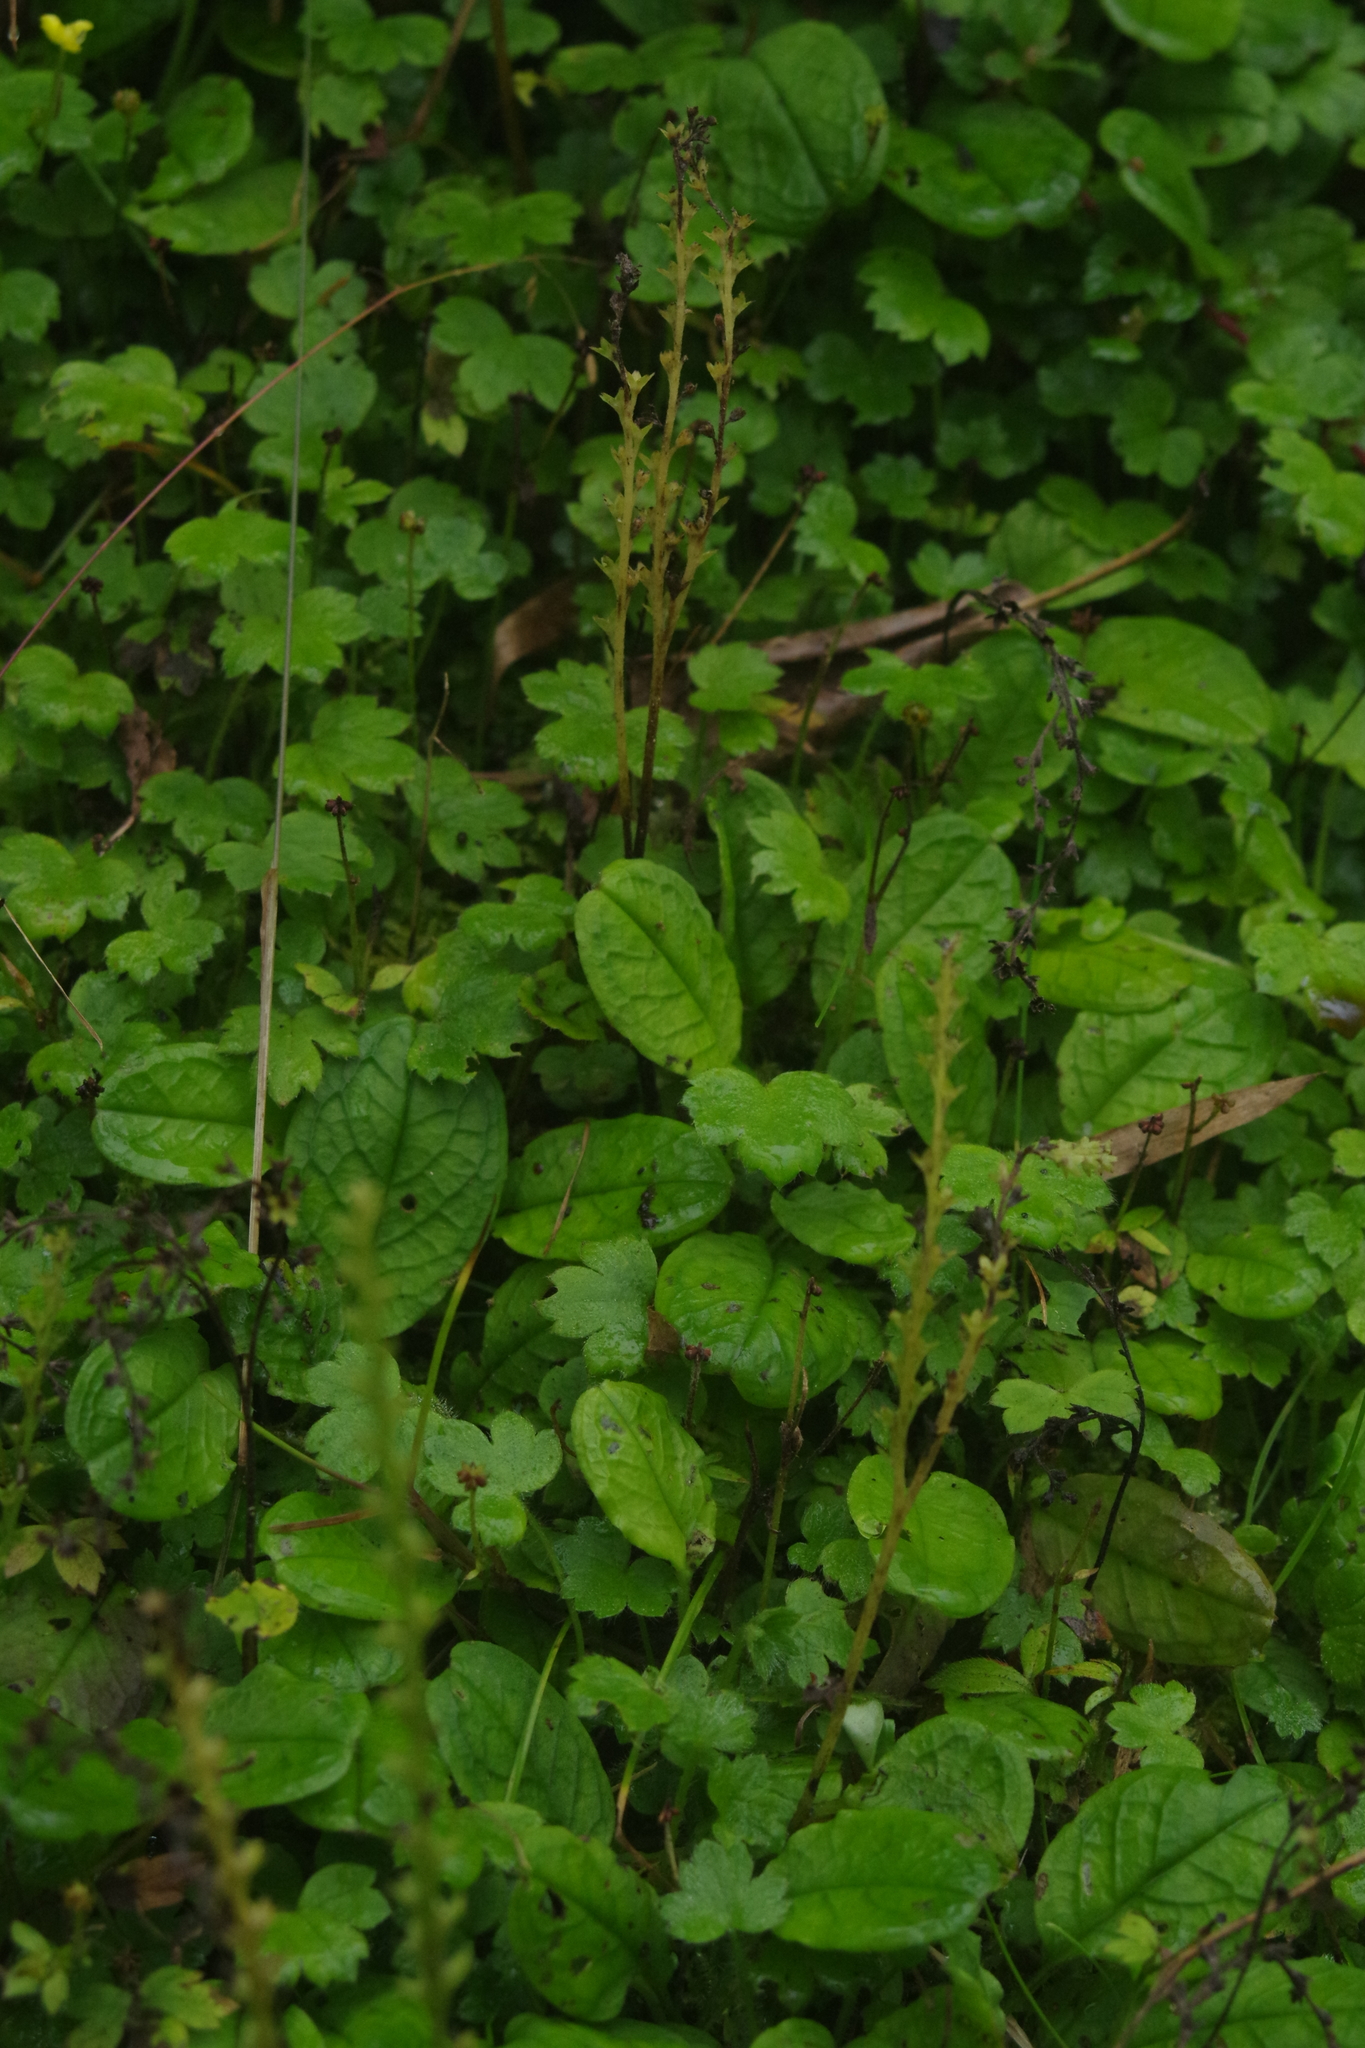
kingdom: Plantae
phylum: Tracheophyta
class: Magnoliopsida
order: Boraginales
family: Boraginaceae
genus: Trigonotis
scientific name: Trigonotis formosana
